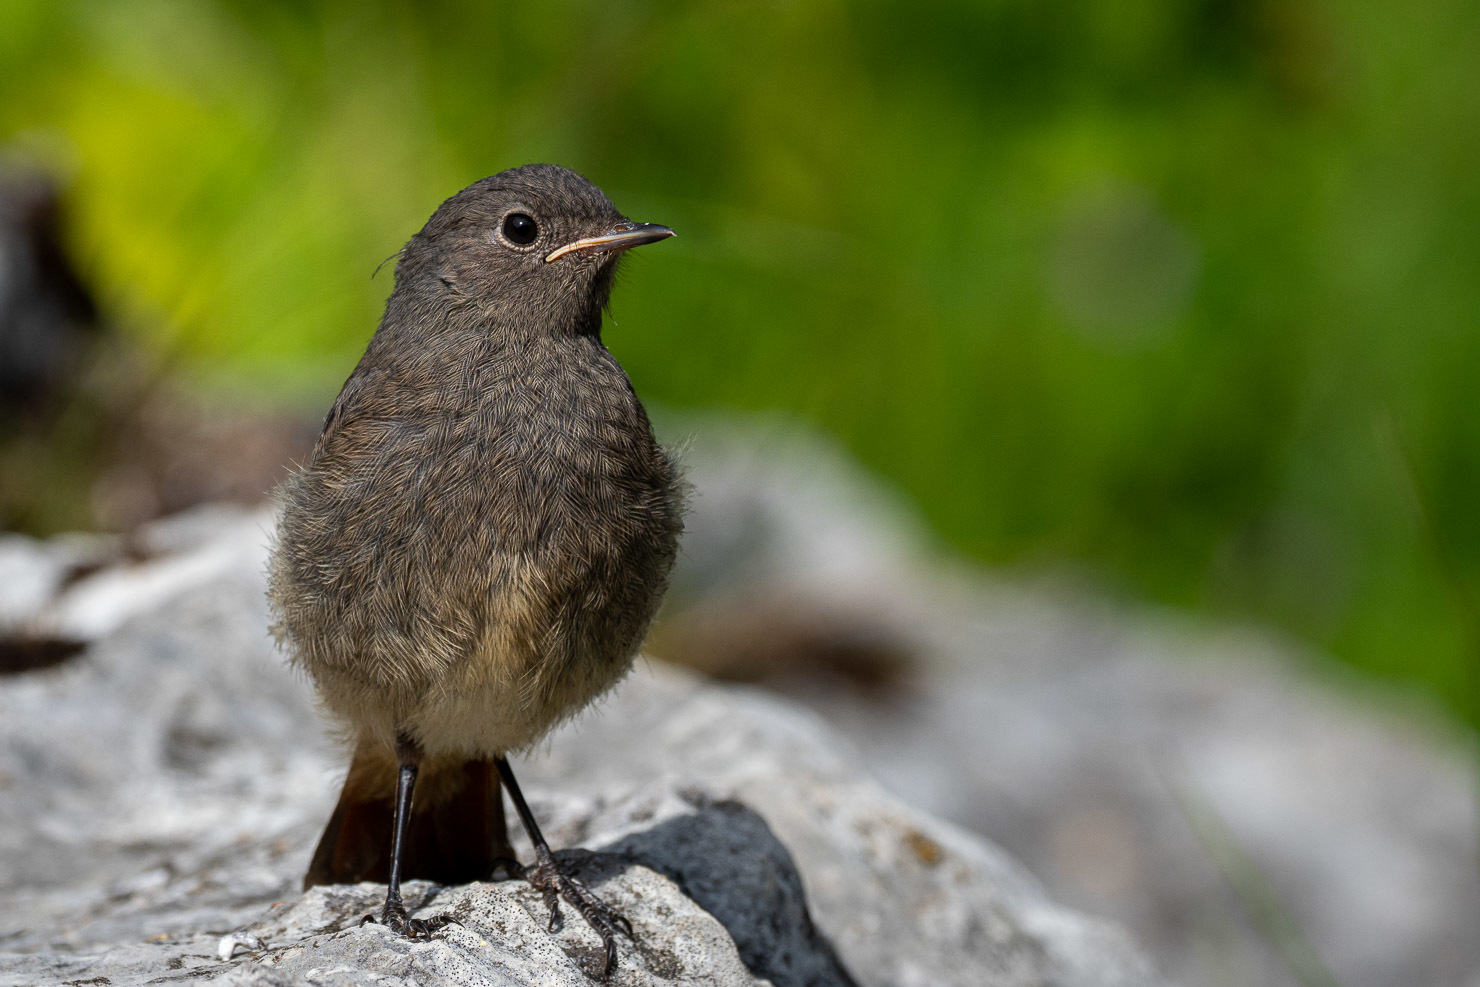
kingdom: Animalia
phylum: Chordata
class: Aves
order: Passeriformes
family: Muscicapidae
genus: Phoenicurus
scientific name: Phoenicurus ochruros
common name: Black redstart
